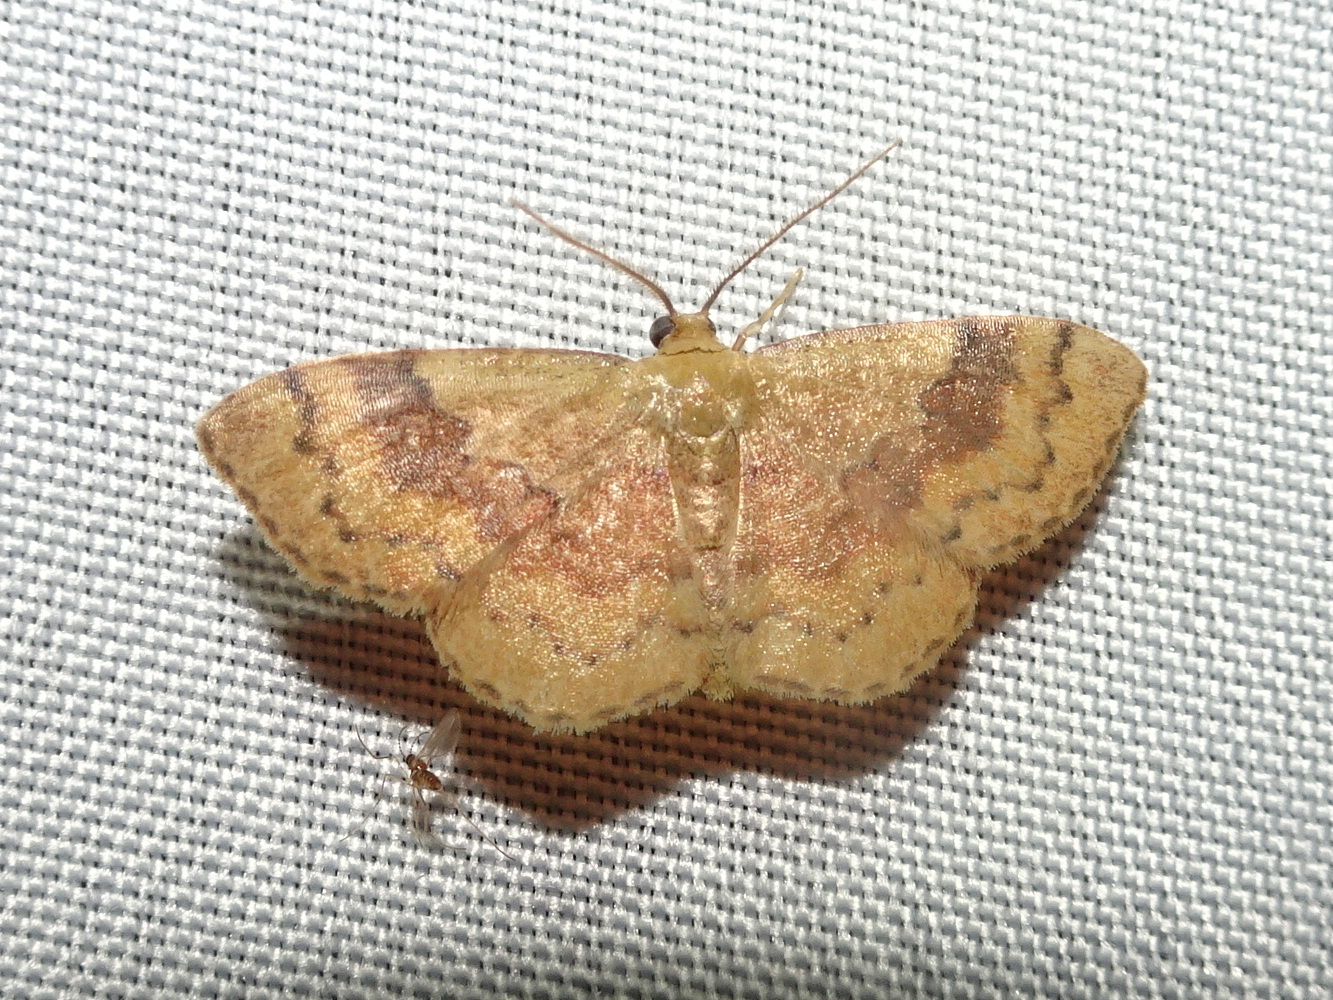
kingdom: Animalia
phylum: Arthropoda
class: Insecta
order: Lepidoptera
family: Geometridae
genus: Leptostales
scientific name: Leptostales ferruminaria
